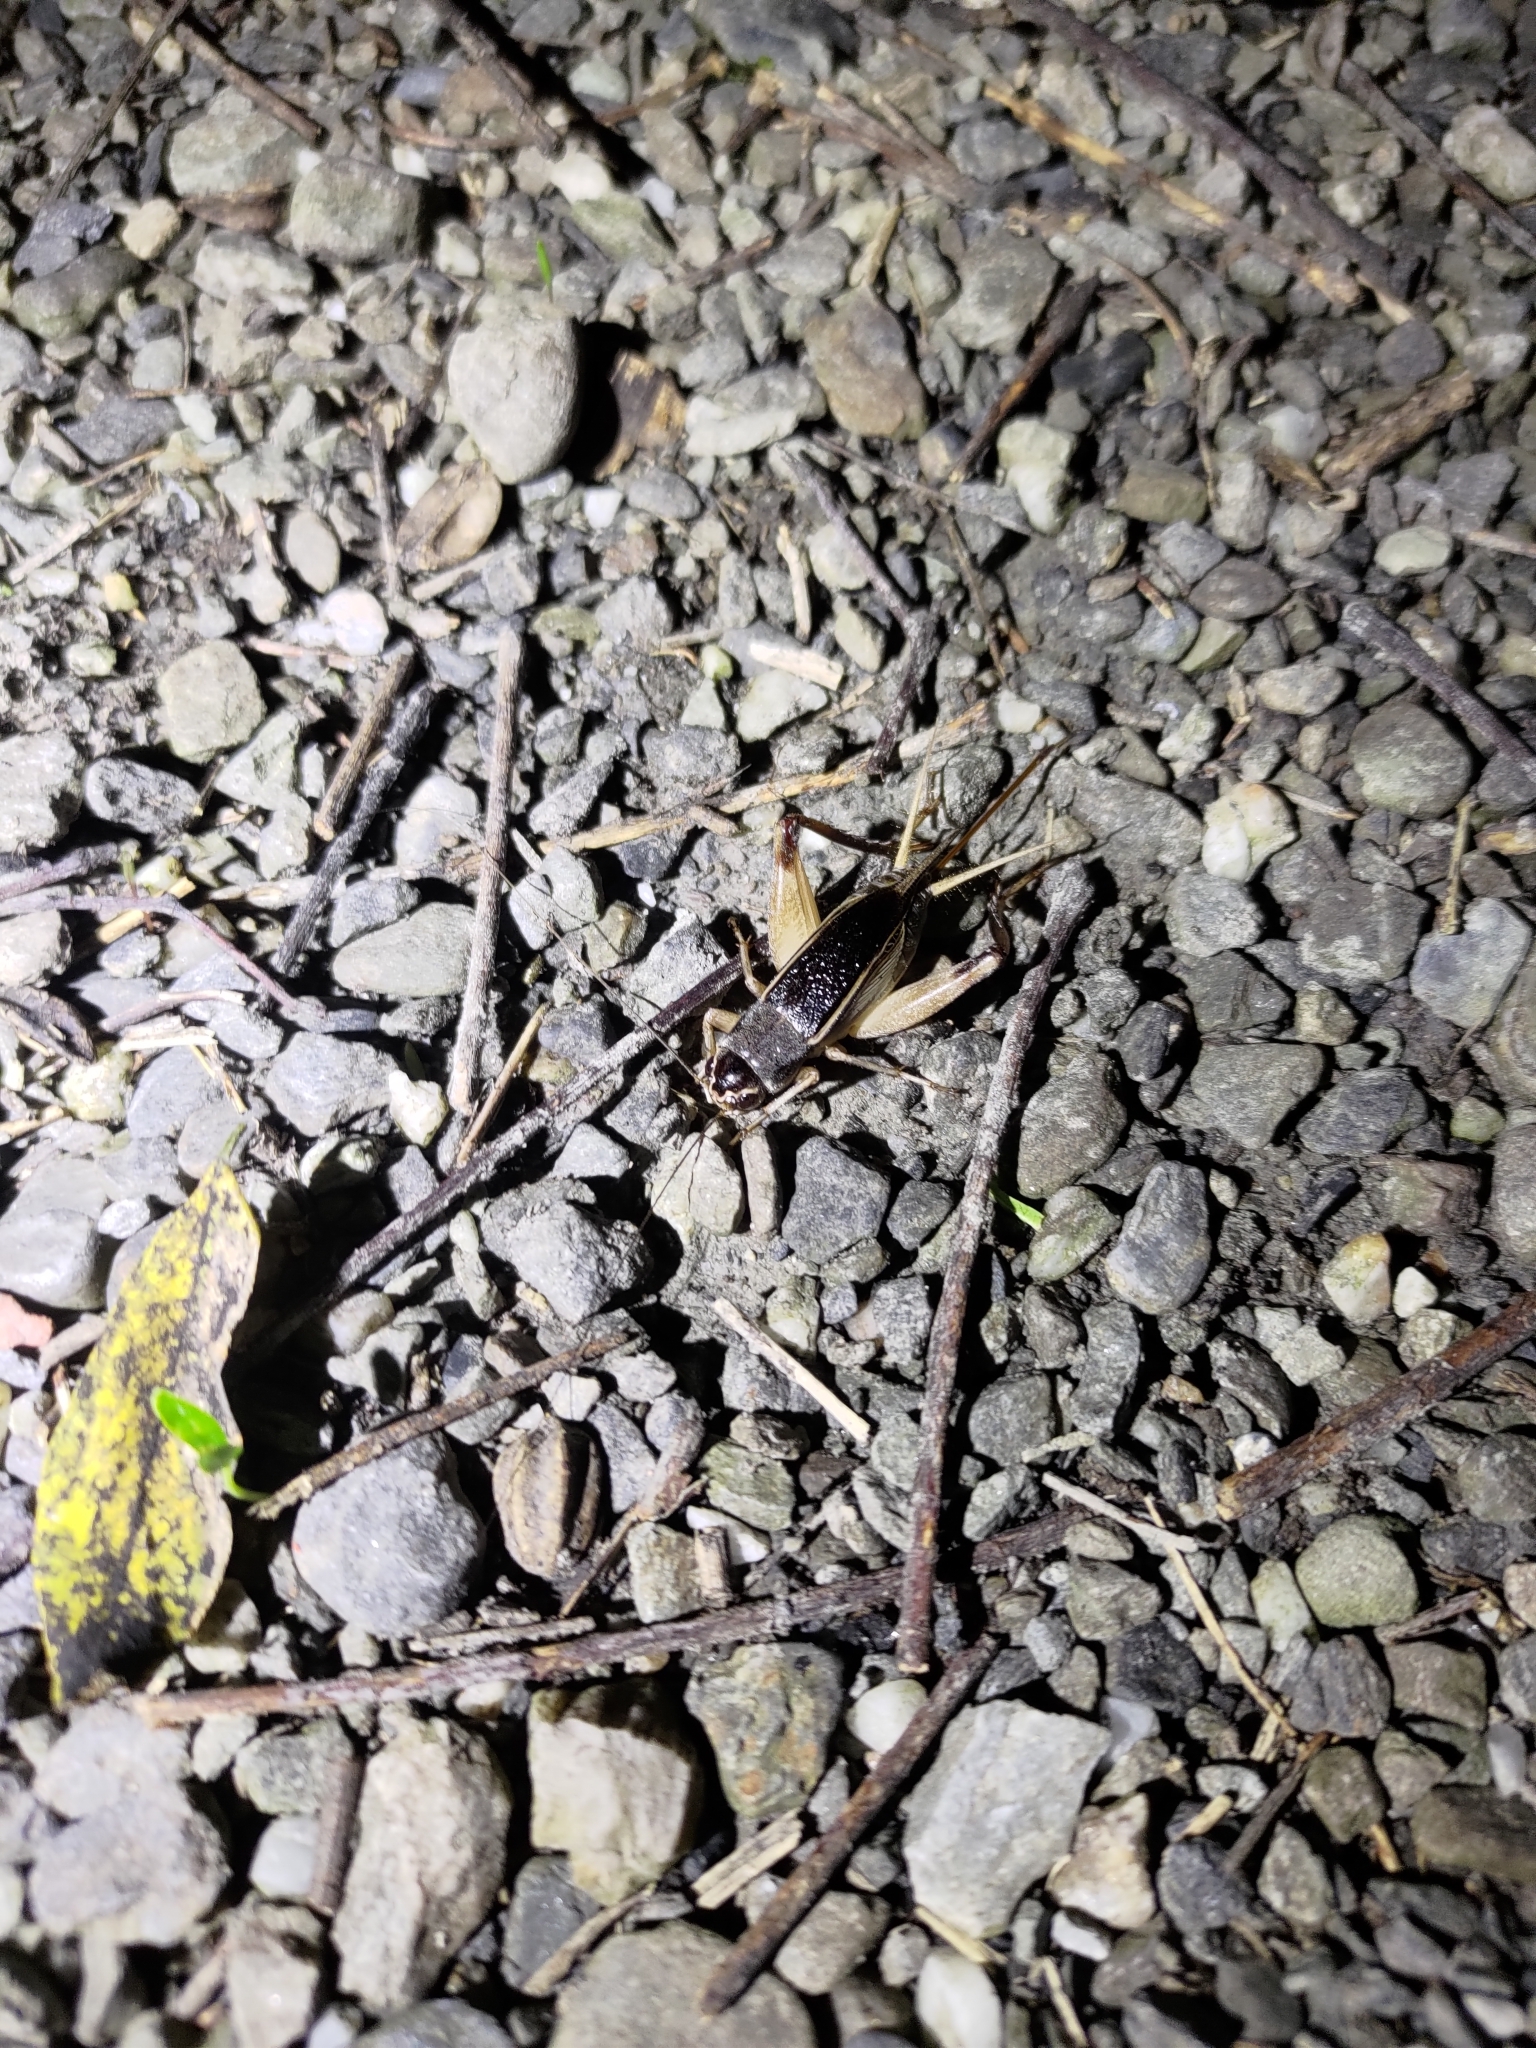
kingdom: Animalia
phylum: Arthropoda
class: Insecta
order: Orthoptera
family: Gryllidae
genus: Teleogryllus
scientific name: Teleogryllus mitratus
